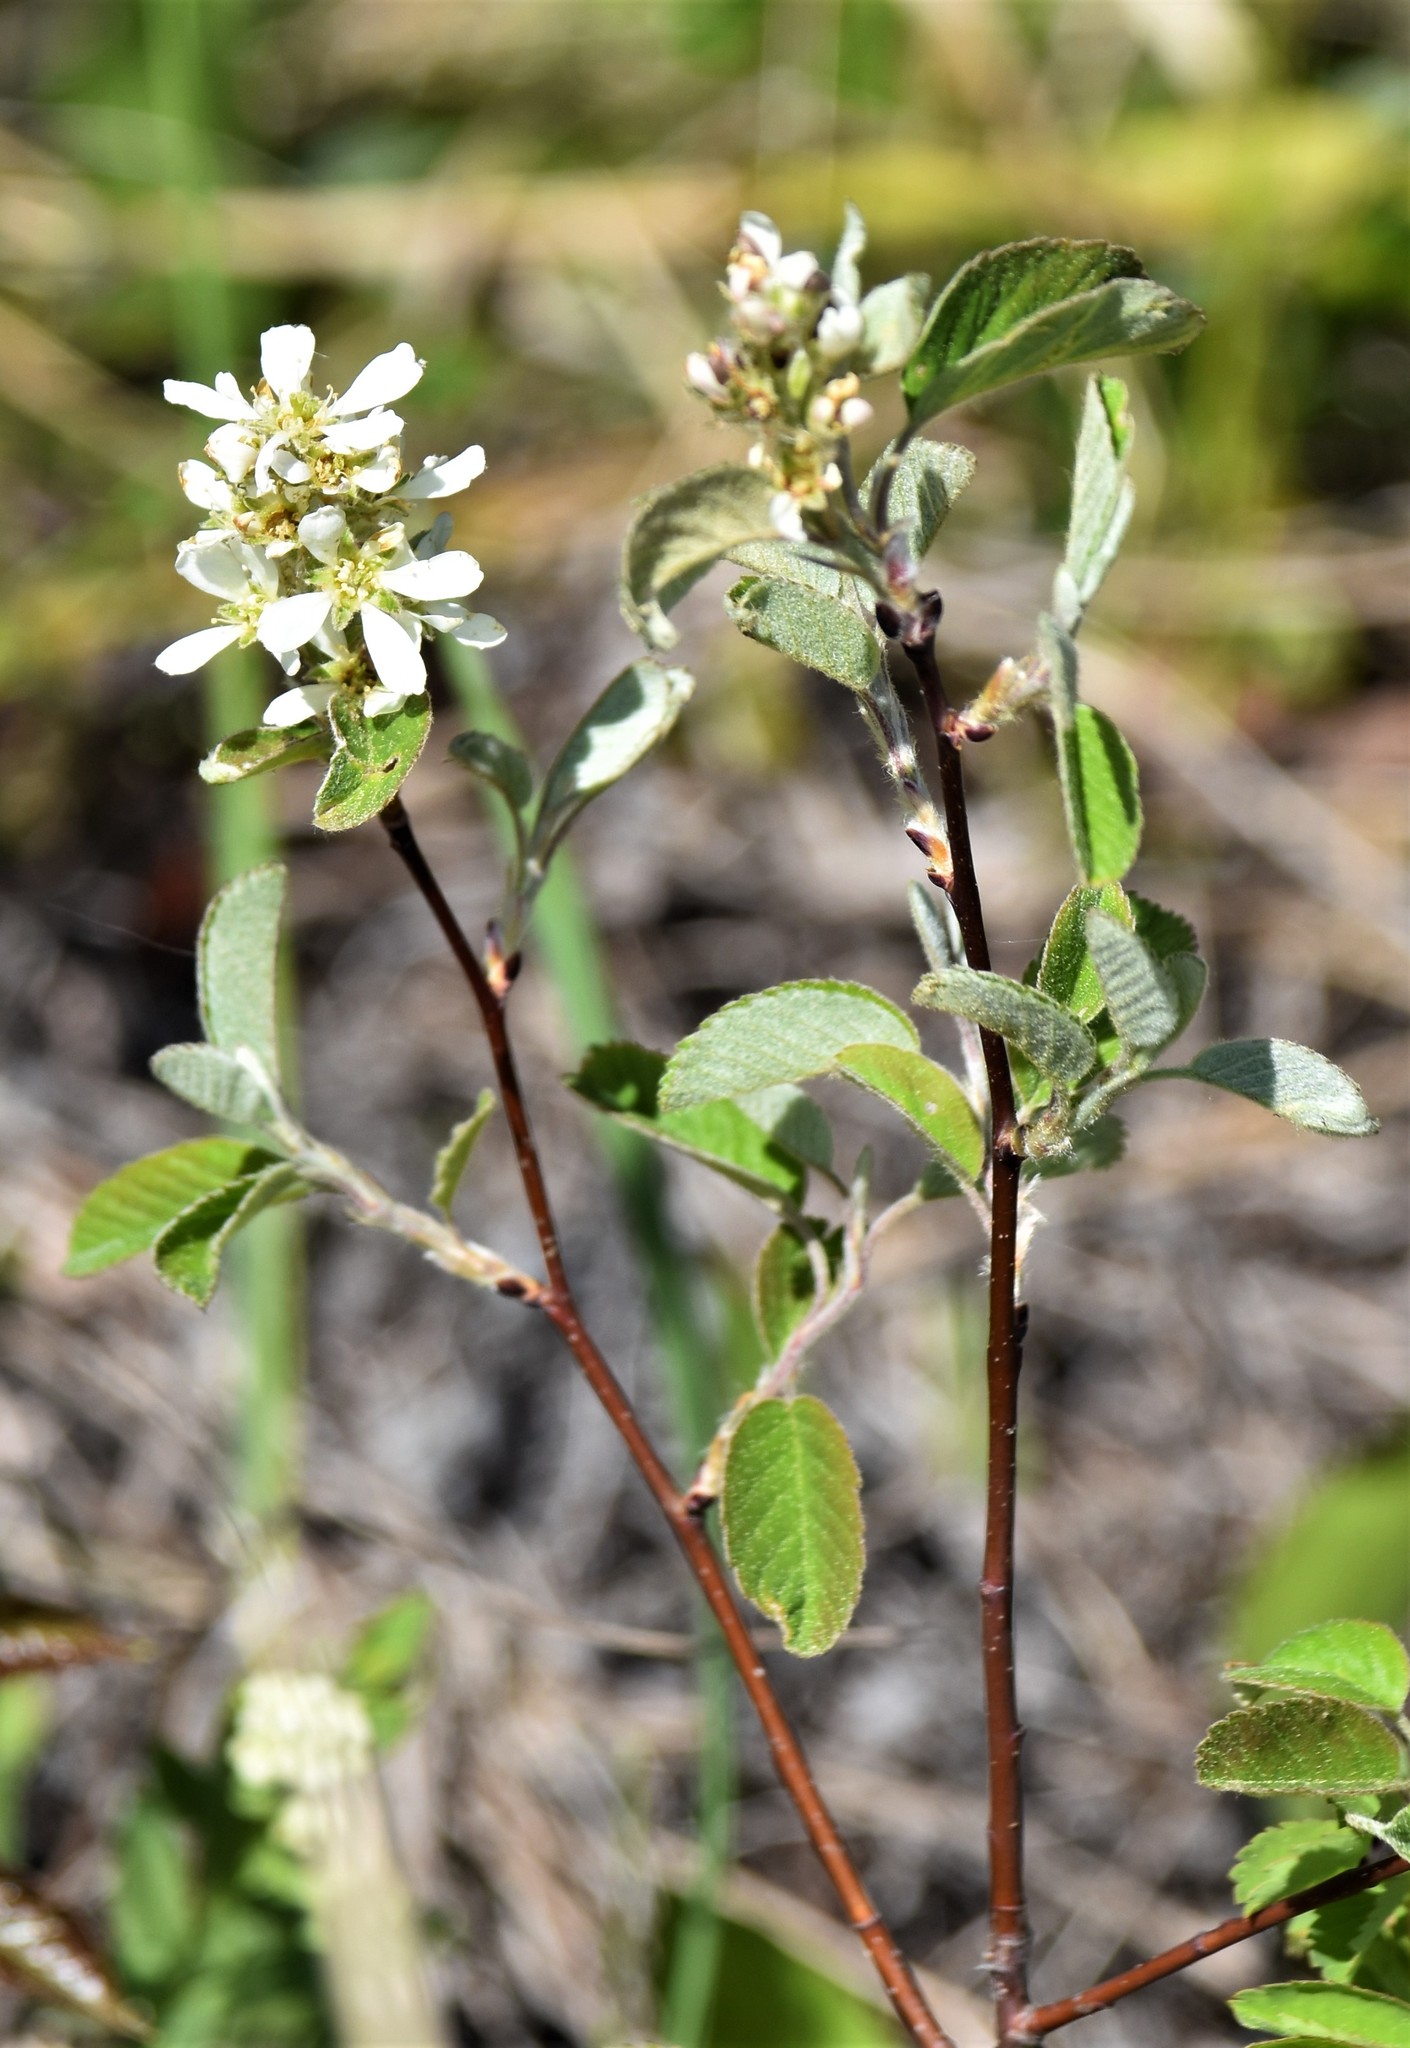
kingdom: Plantae
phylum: Tracheophyta
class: Magnoliopsida
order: Rosales
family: Rosaceae
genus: Amelanchier
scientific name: Amelanchier alnifolia
